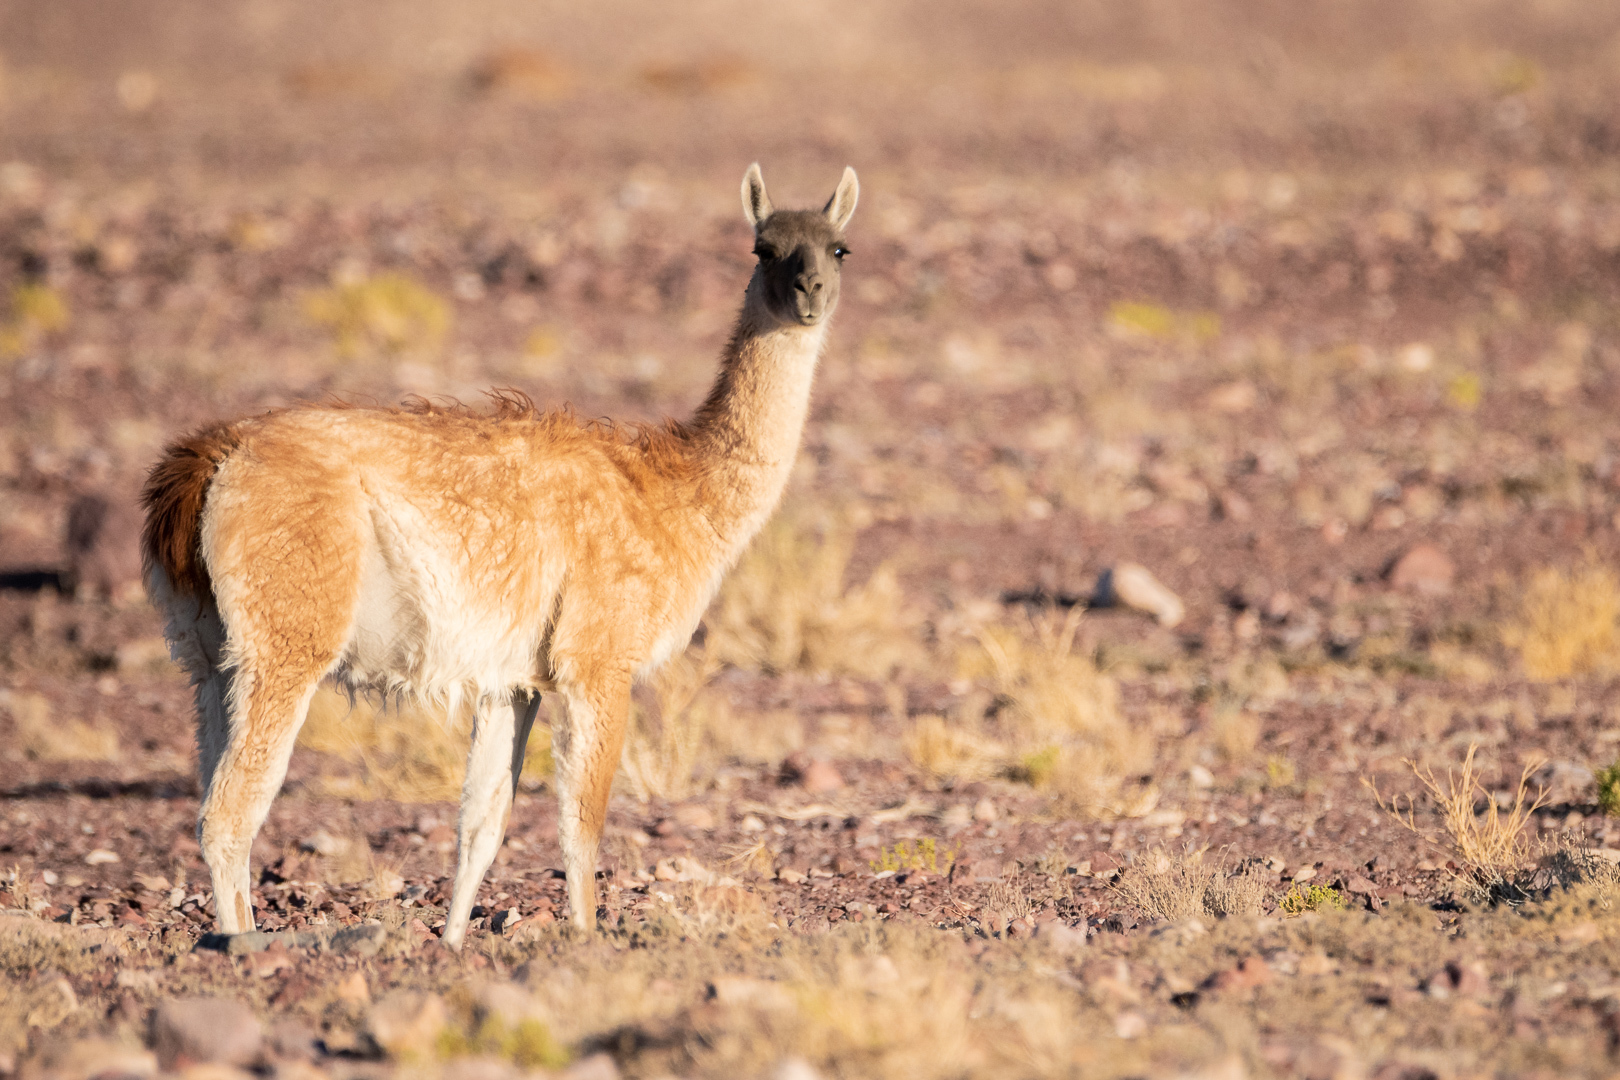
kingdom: Animalia
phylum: Chordata
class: Mammalia
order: Artiodactyla
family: Camelidae
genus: Lama
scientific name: Lama glama
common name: Llama
